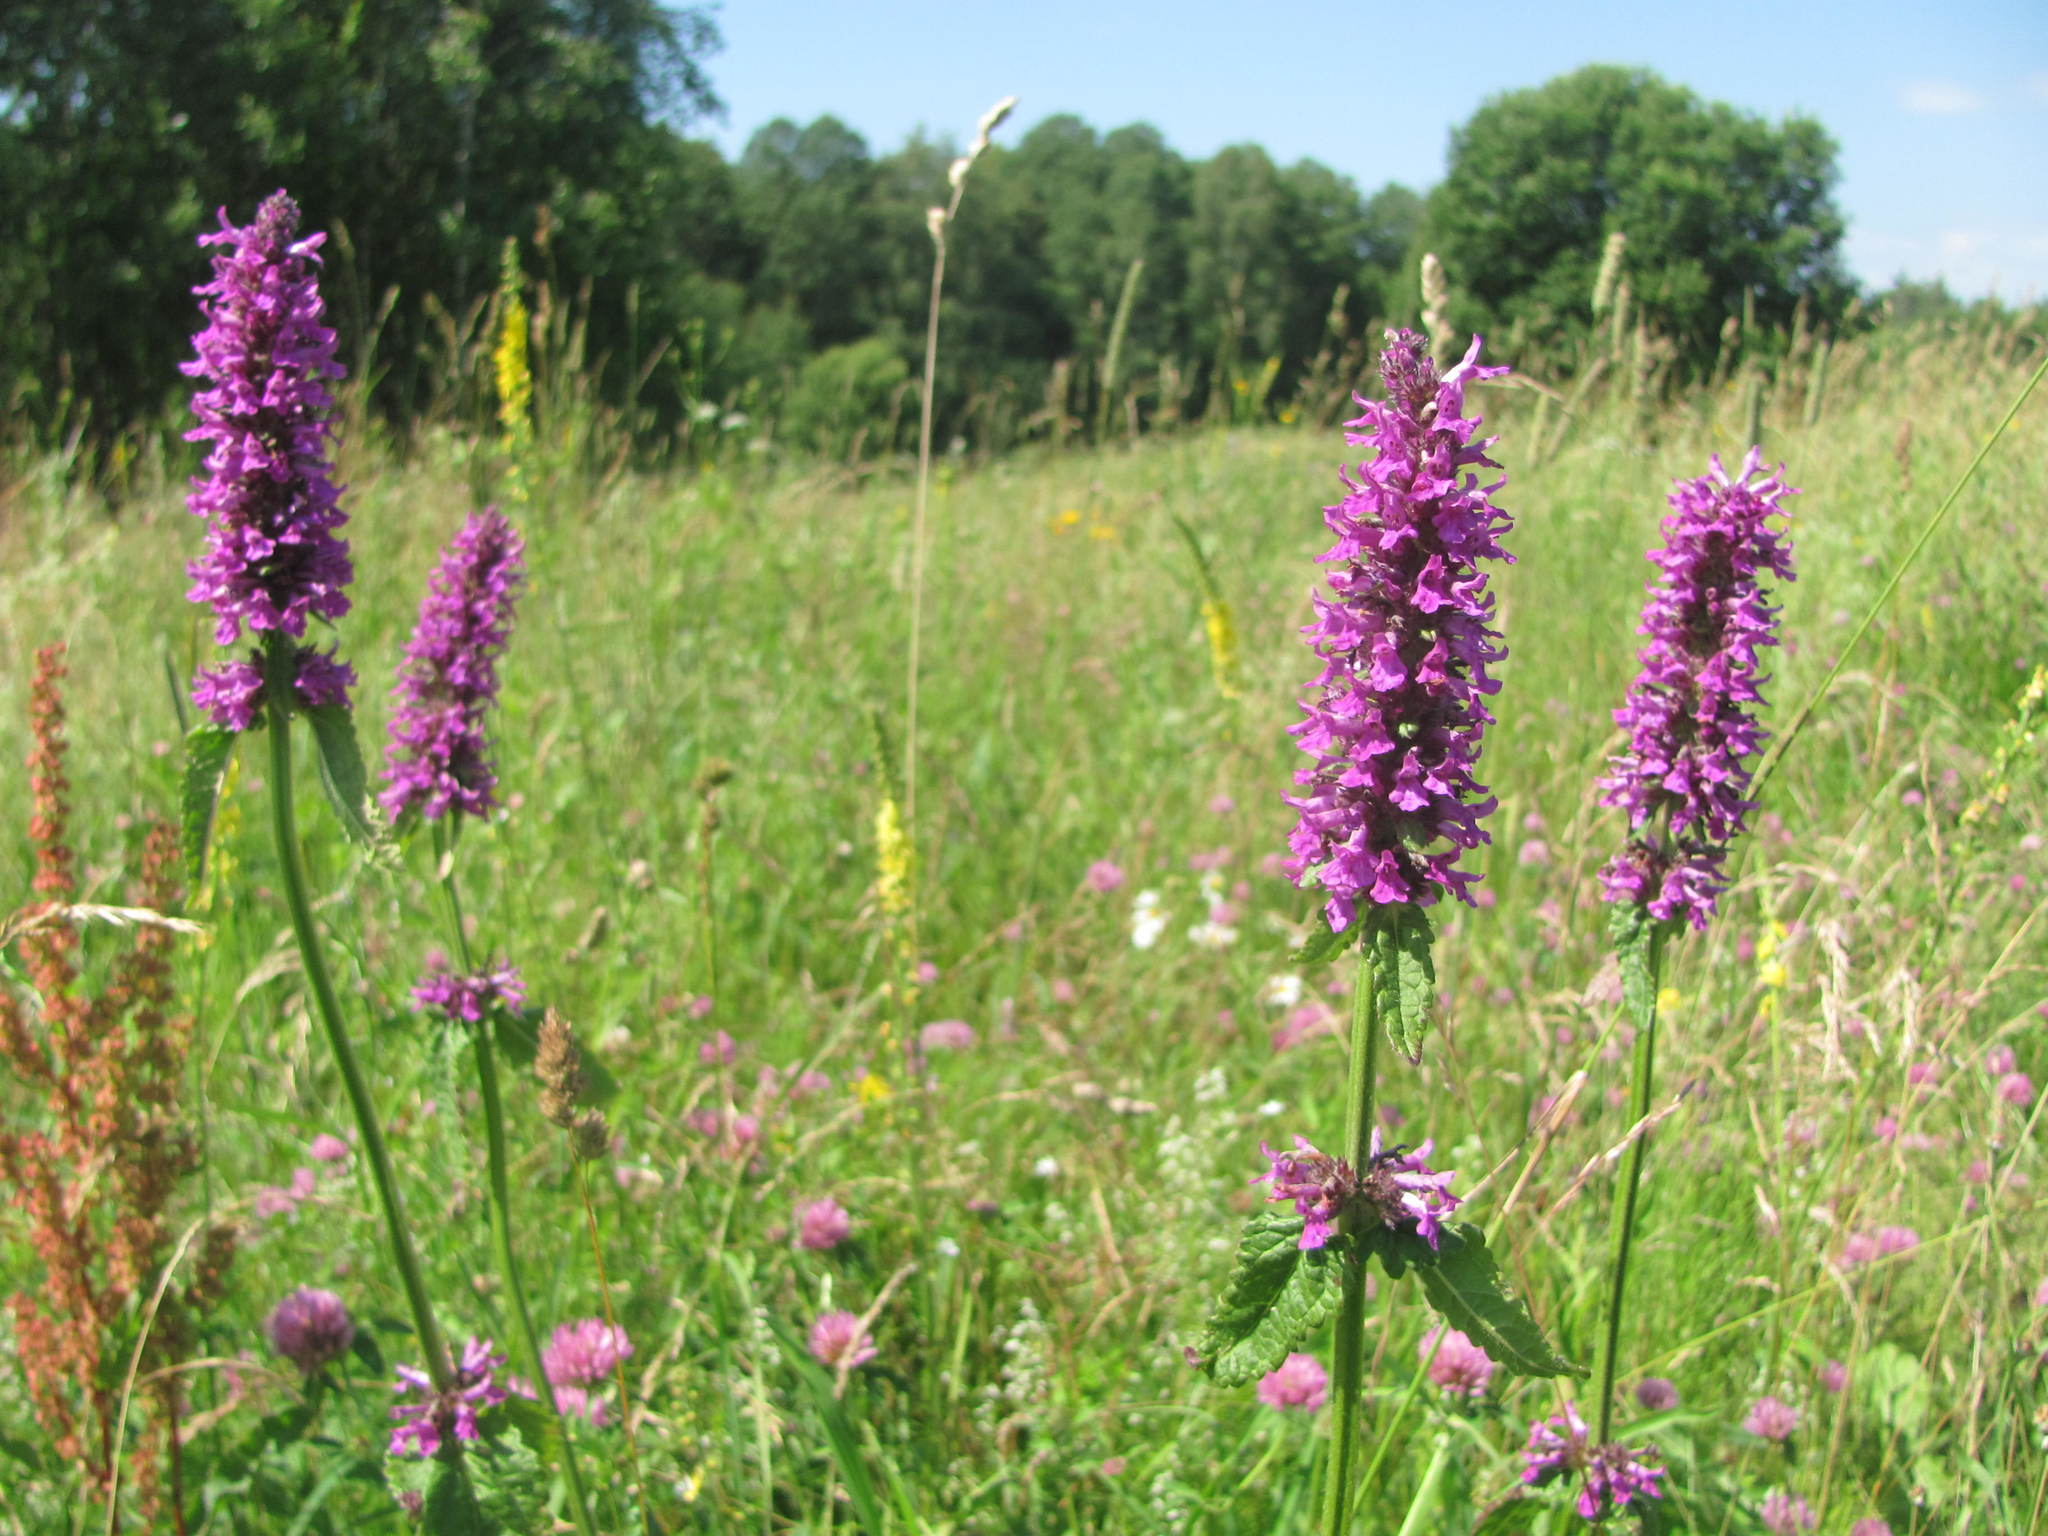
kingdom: Plantae
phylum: Tracheophyta
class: Magnoliopsida
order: Lamiales
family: Lamiaceae
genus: Betonica
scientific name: Betonica officinalis
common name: Bishop's-wort
